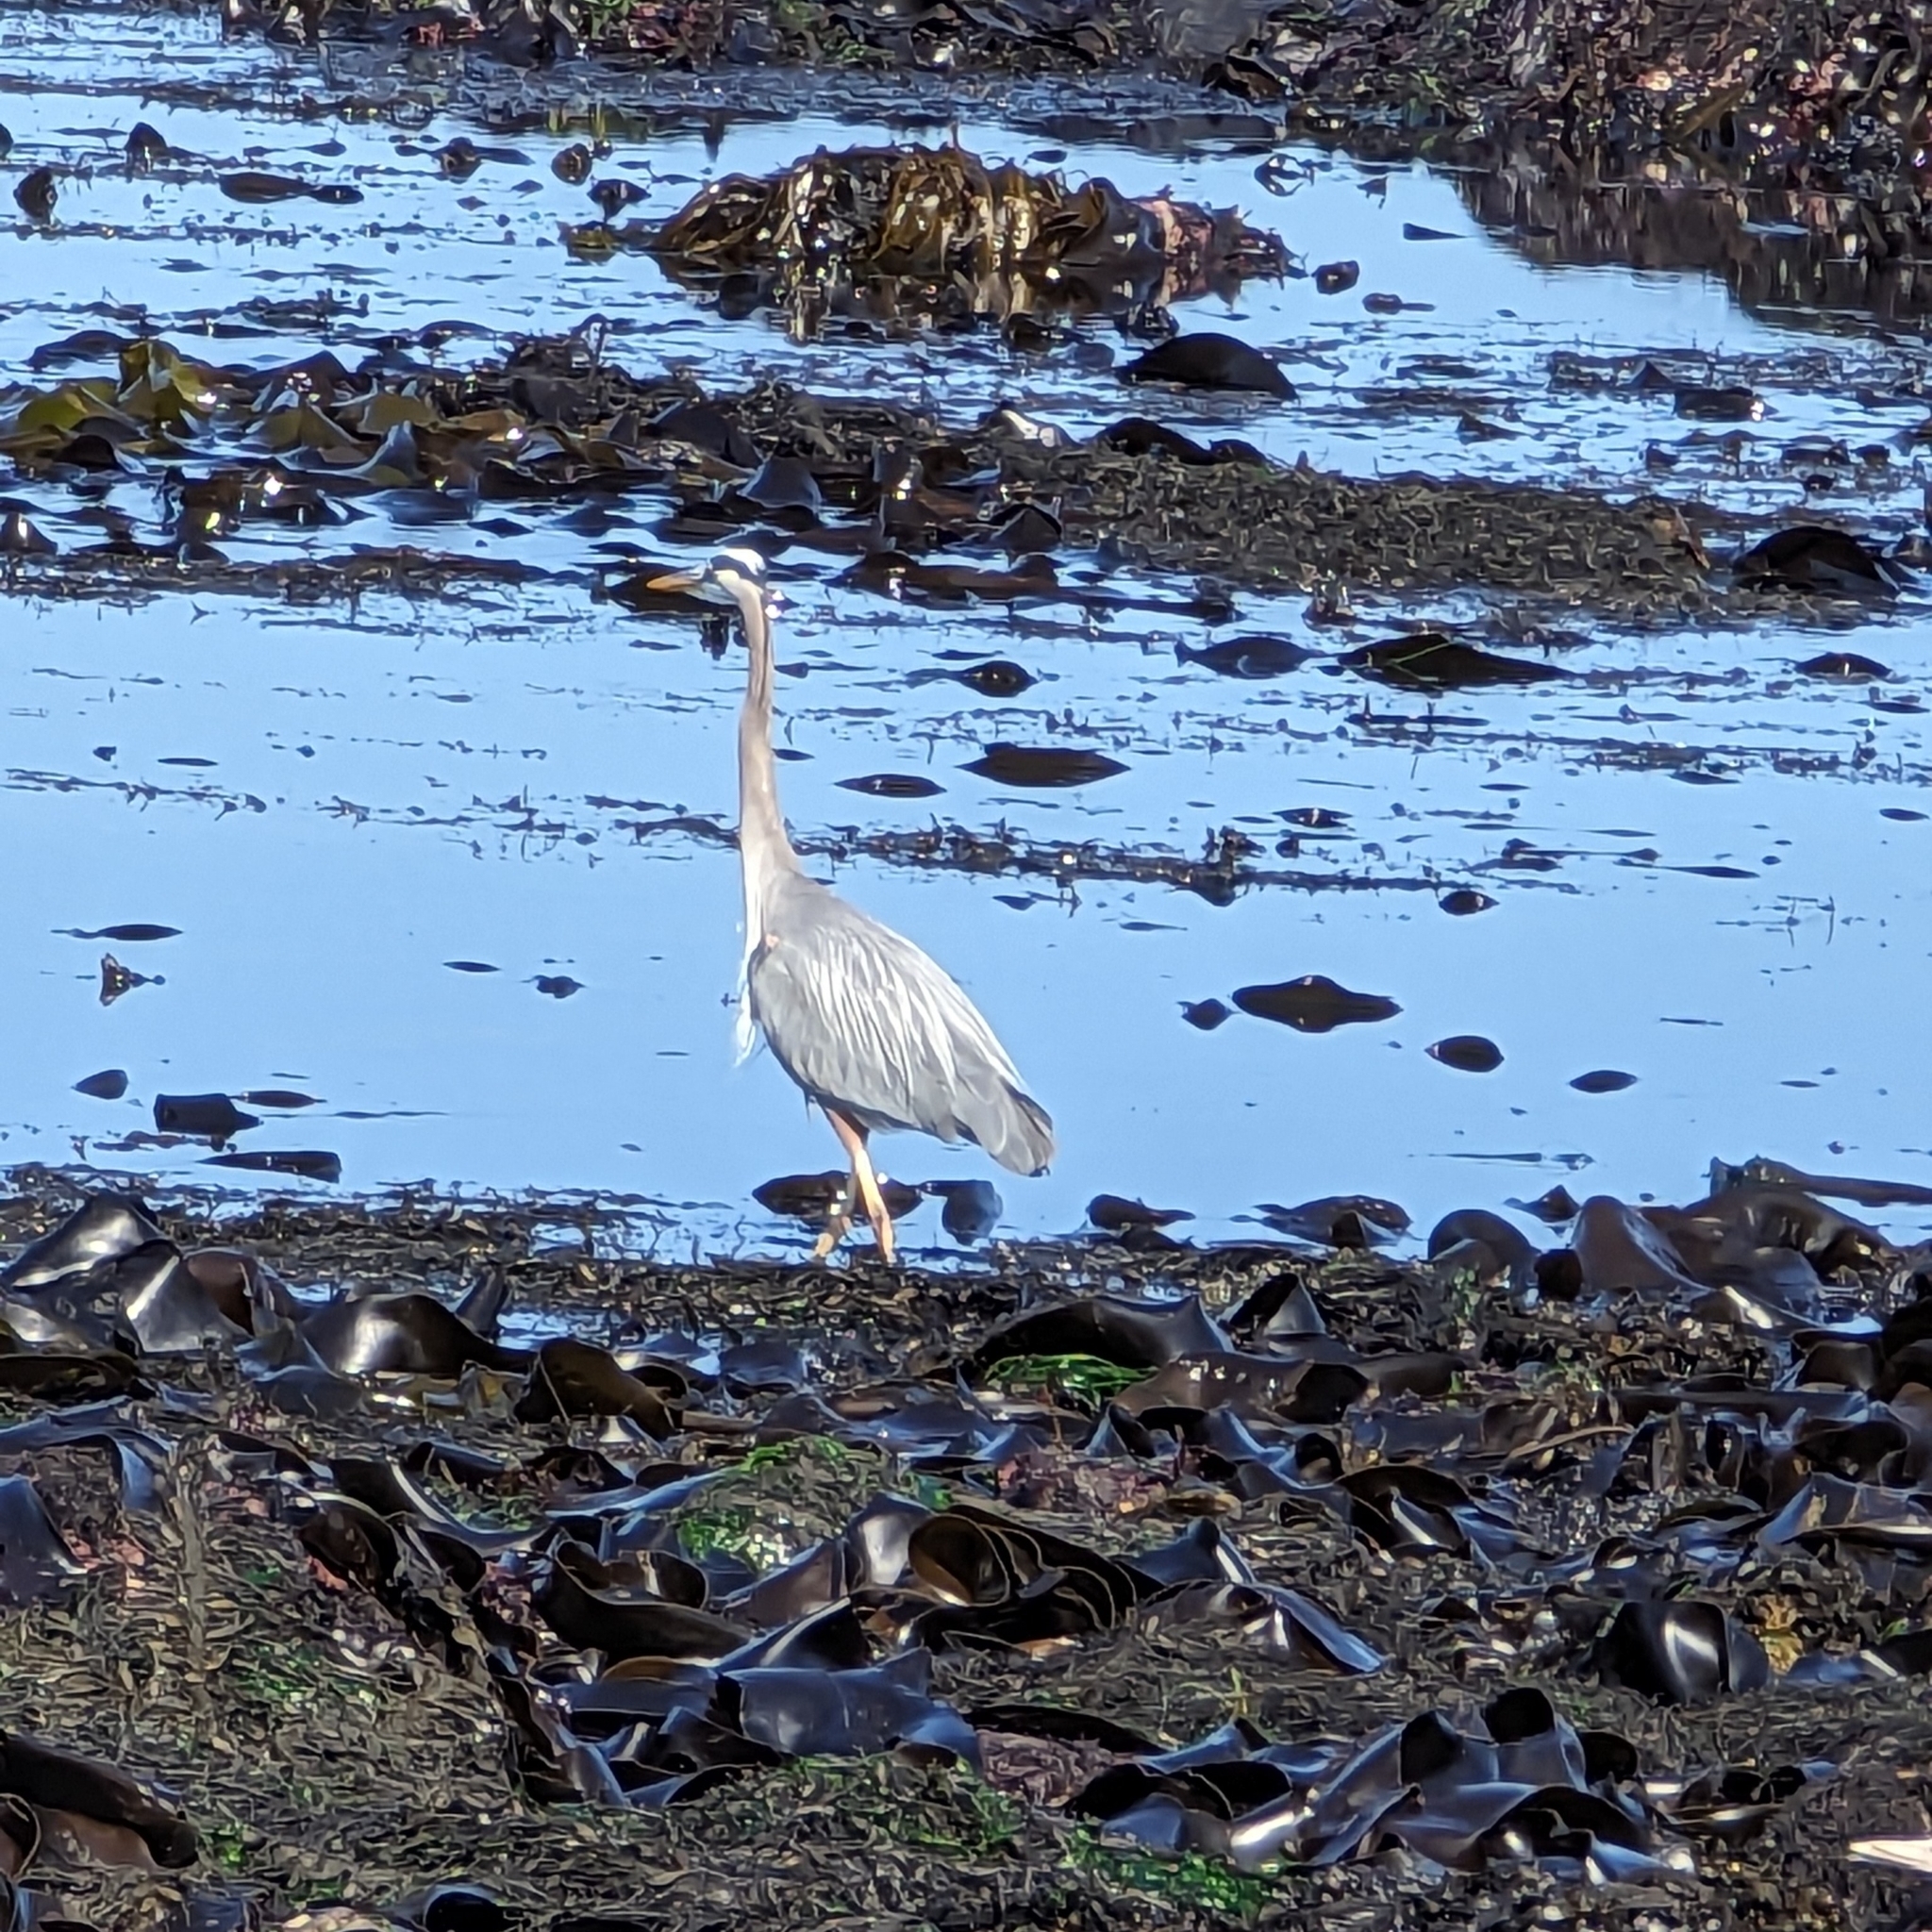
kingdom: Animalia
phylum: Chordata
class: Aves
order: Pelecaniformes
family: Ardeidae
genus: Ardea
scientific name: Ardea herodias
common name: Great blue heron
